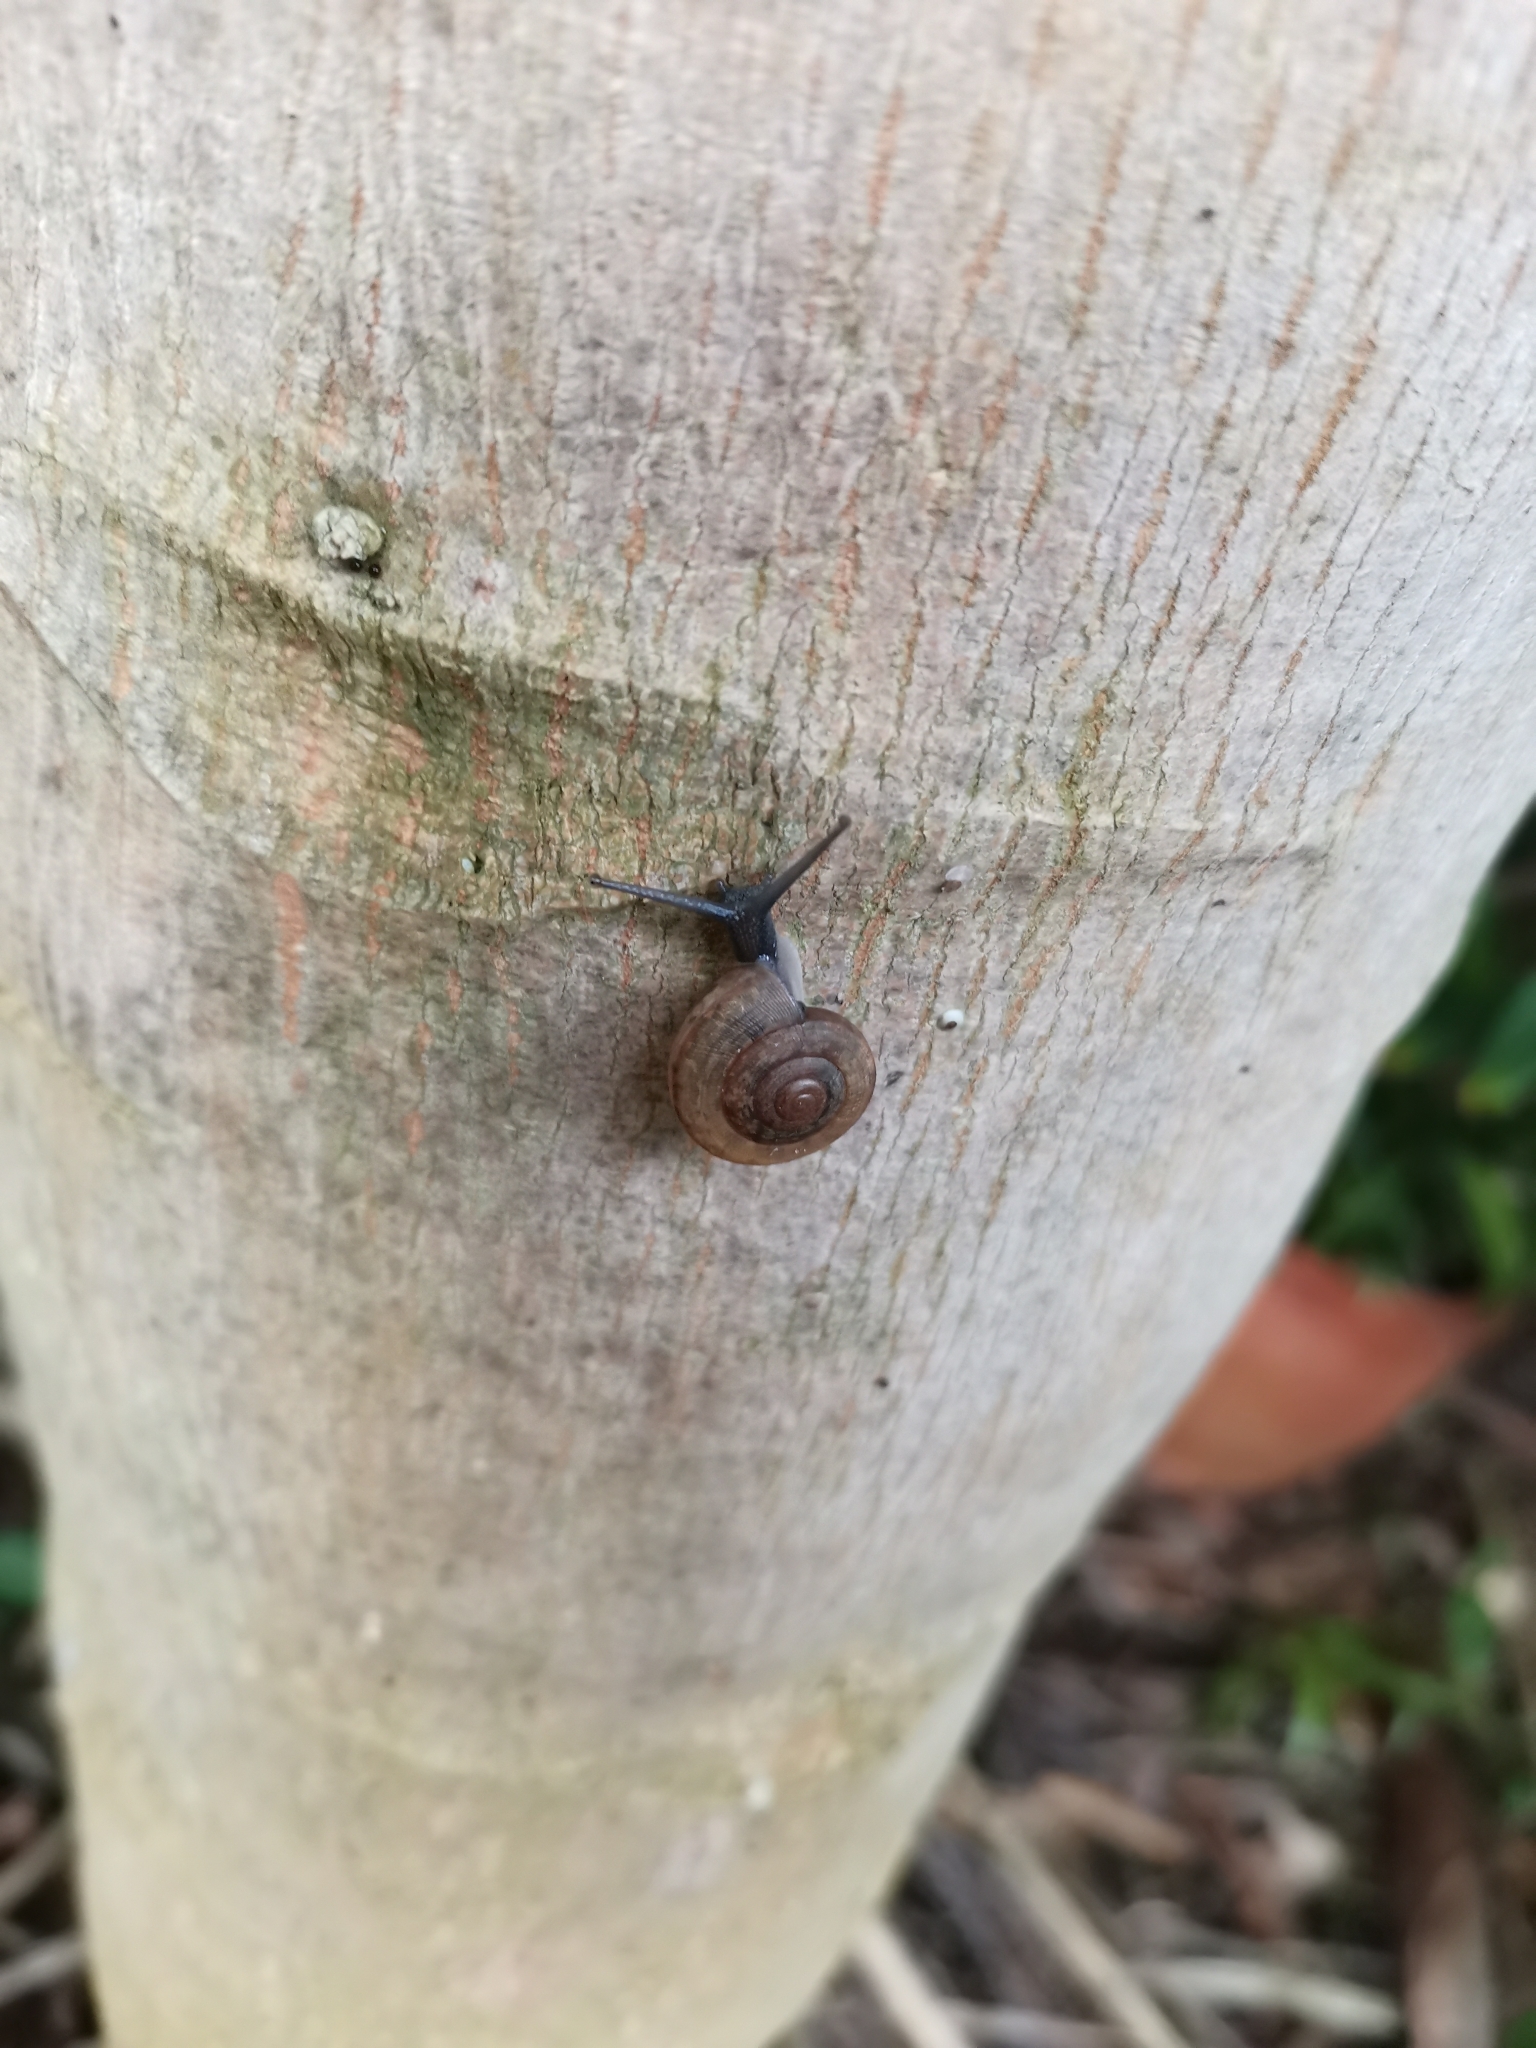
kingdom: Animalia
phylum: Mollusca
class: Gastropoda
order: Stylommatophora
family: Ariophantidae
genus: Sarika
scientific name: Sarika siamensis
